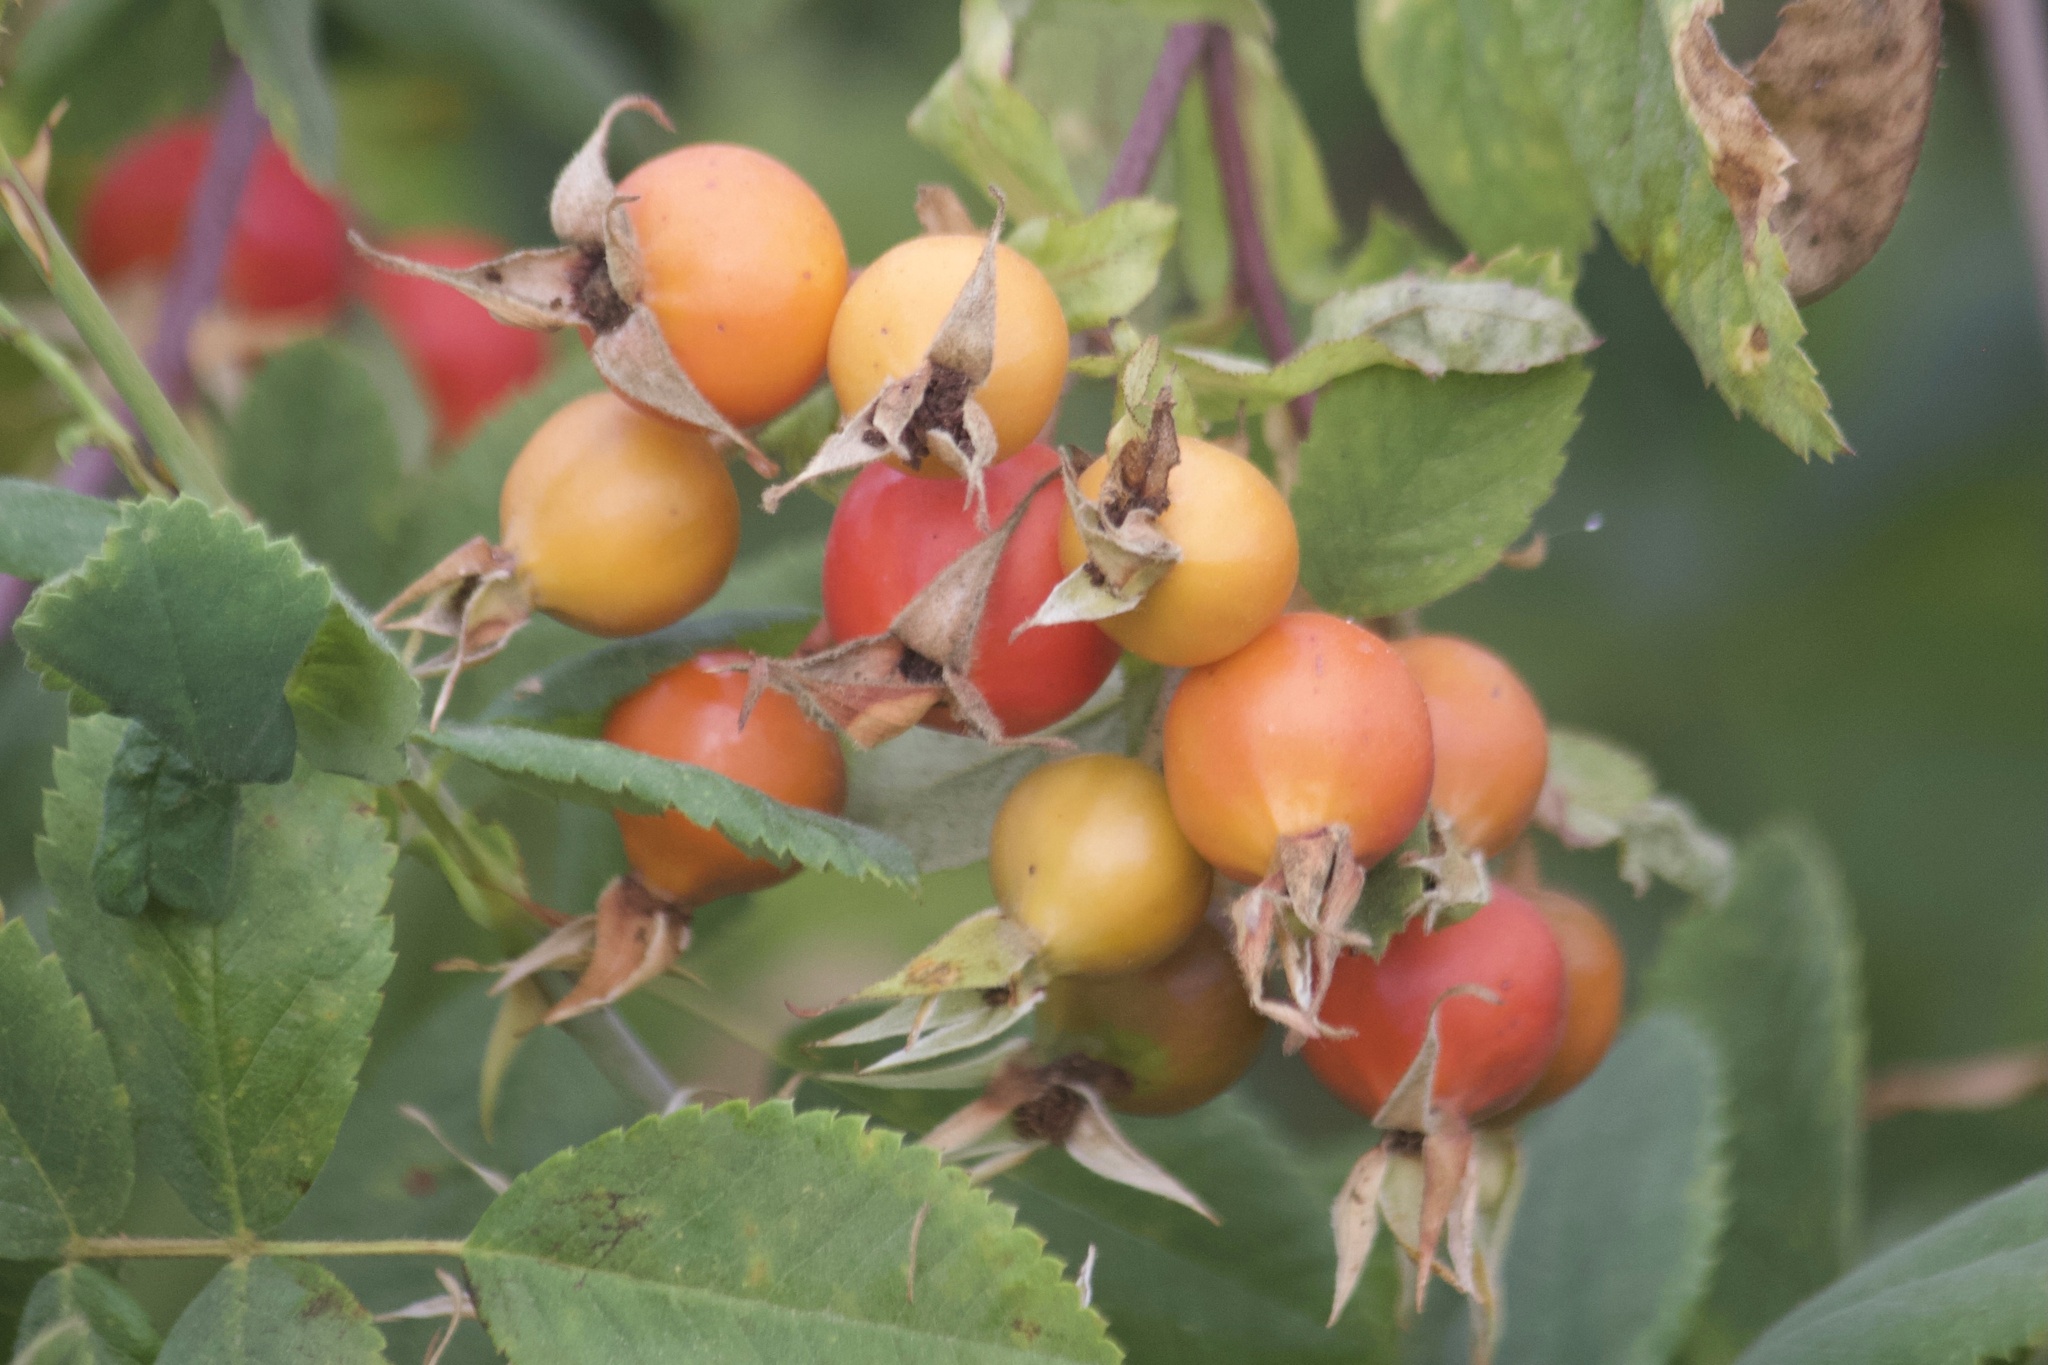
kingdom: Plantae
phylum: Tracheophyta
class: Magnoliopsida
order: Rosales
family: Rosaceae
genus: Rosa
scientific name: Rosa californica
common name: California rose
